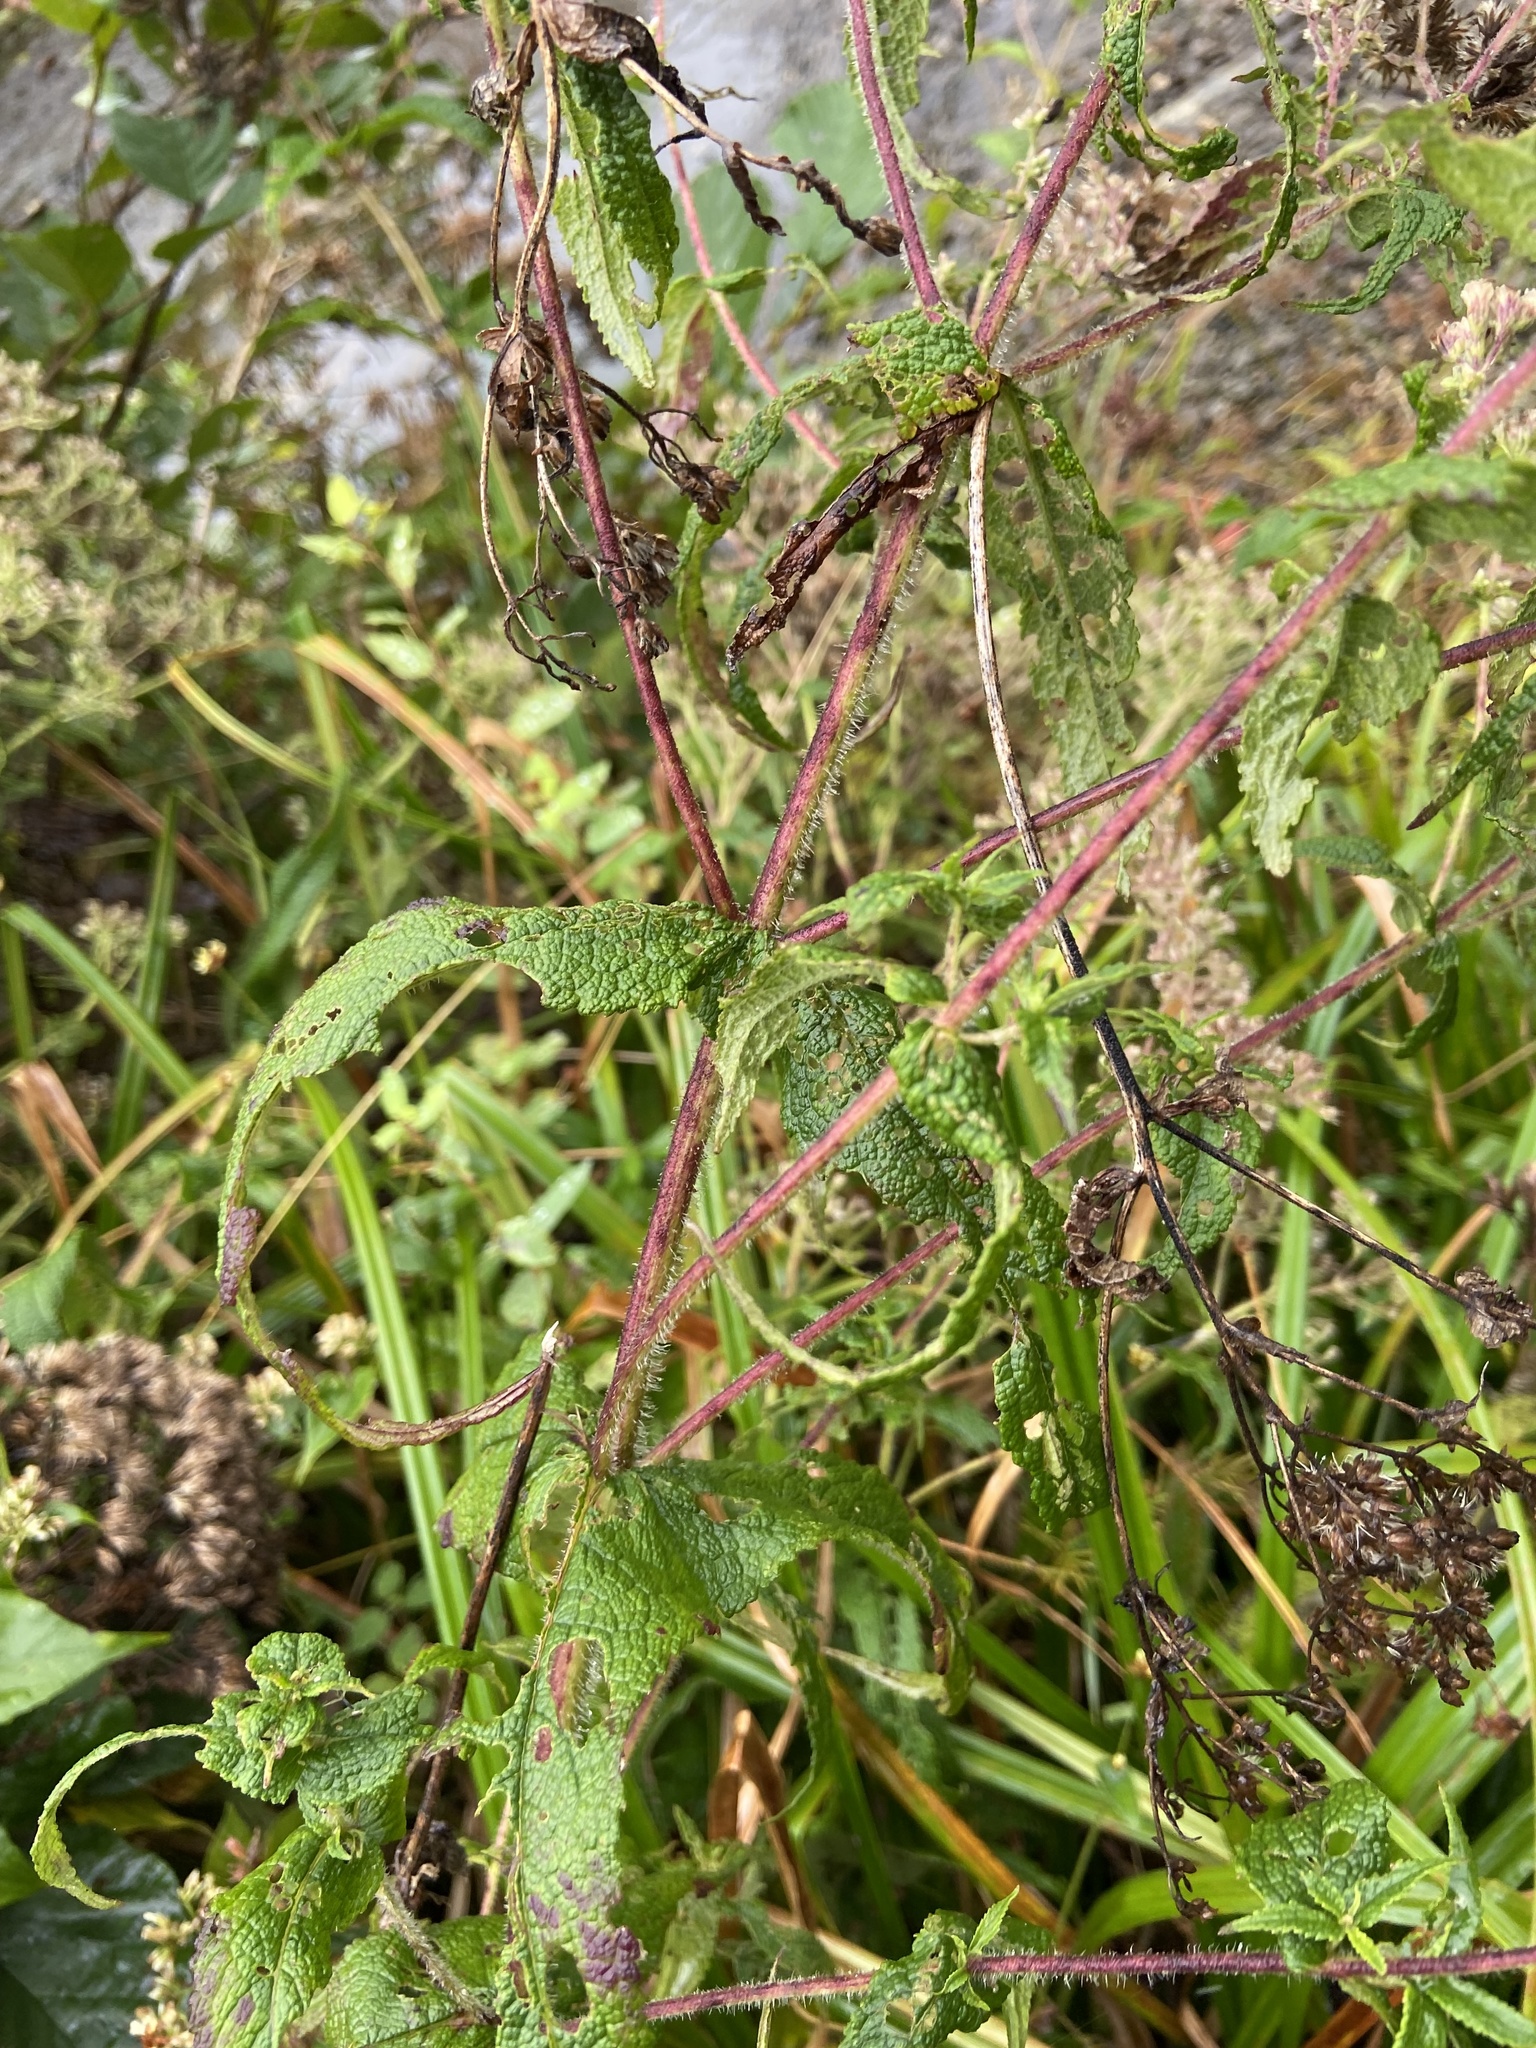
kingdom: Plantae
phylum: Tracheophyta
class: Magnoliopsida
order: Asterales
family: Asteraceae
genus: Eupatorium
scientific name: Eupatorium perfoliatum
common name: Boneset
